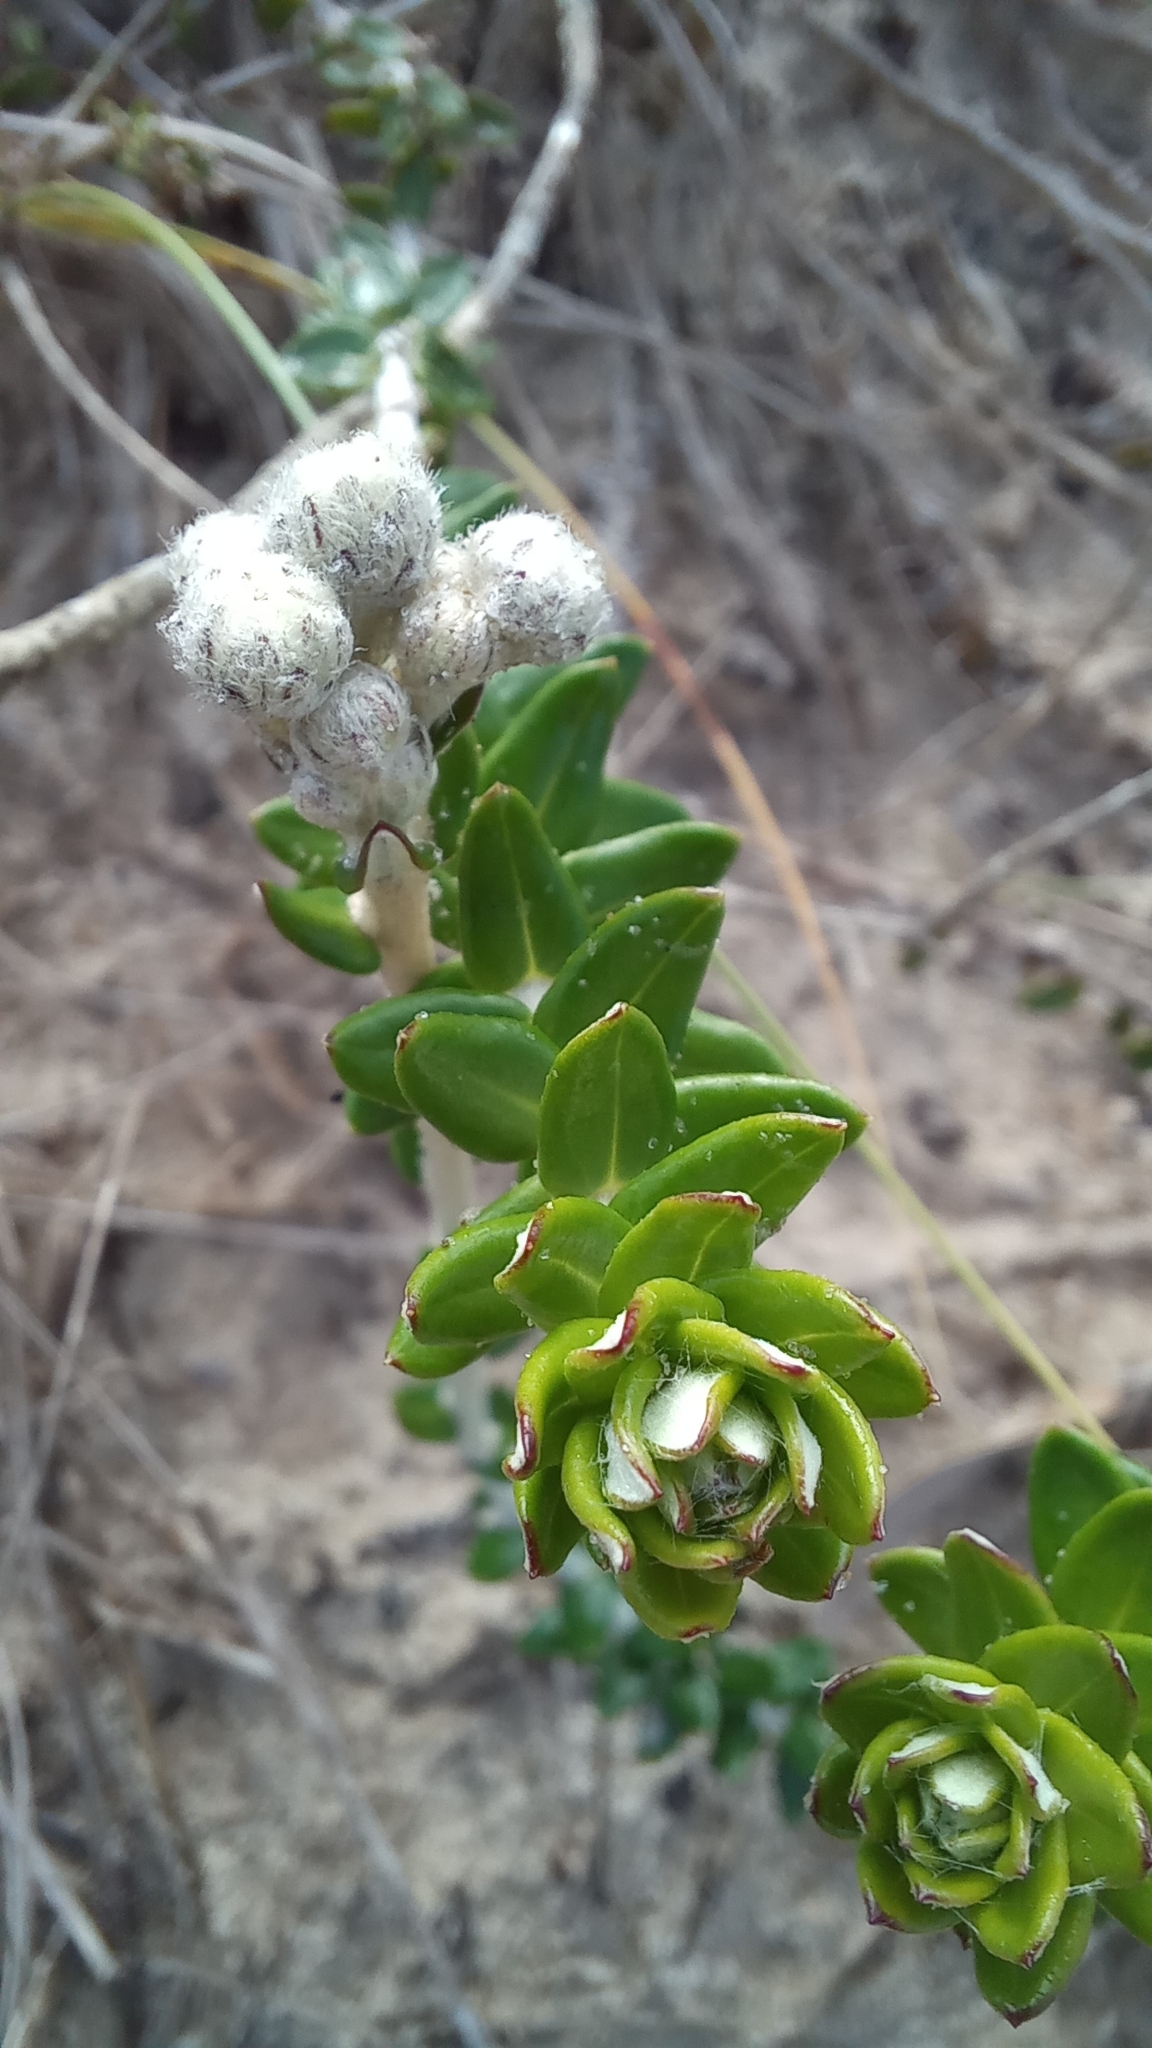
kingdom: Plantae
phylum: Tracheophyta
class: Magnoliopsida
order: Asterales
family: Asteraceae
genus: Baccharis
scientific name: Baccharis gnaphalioides
